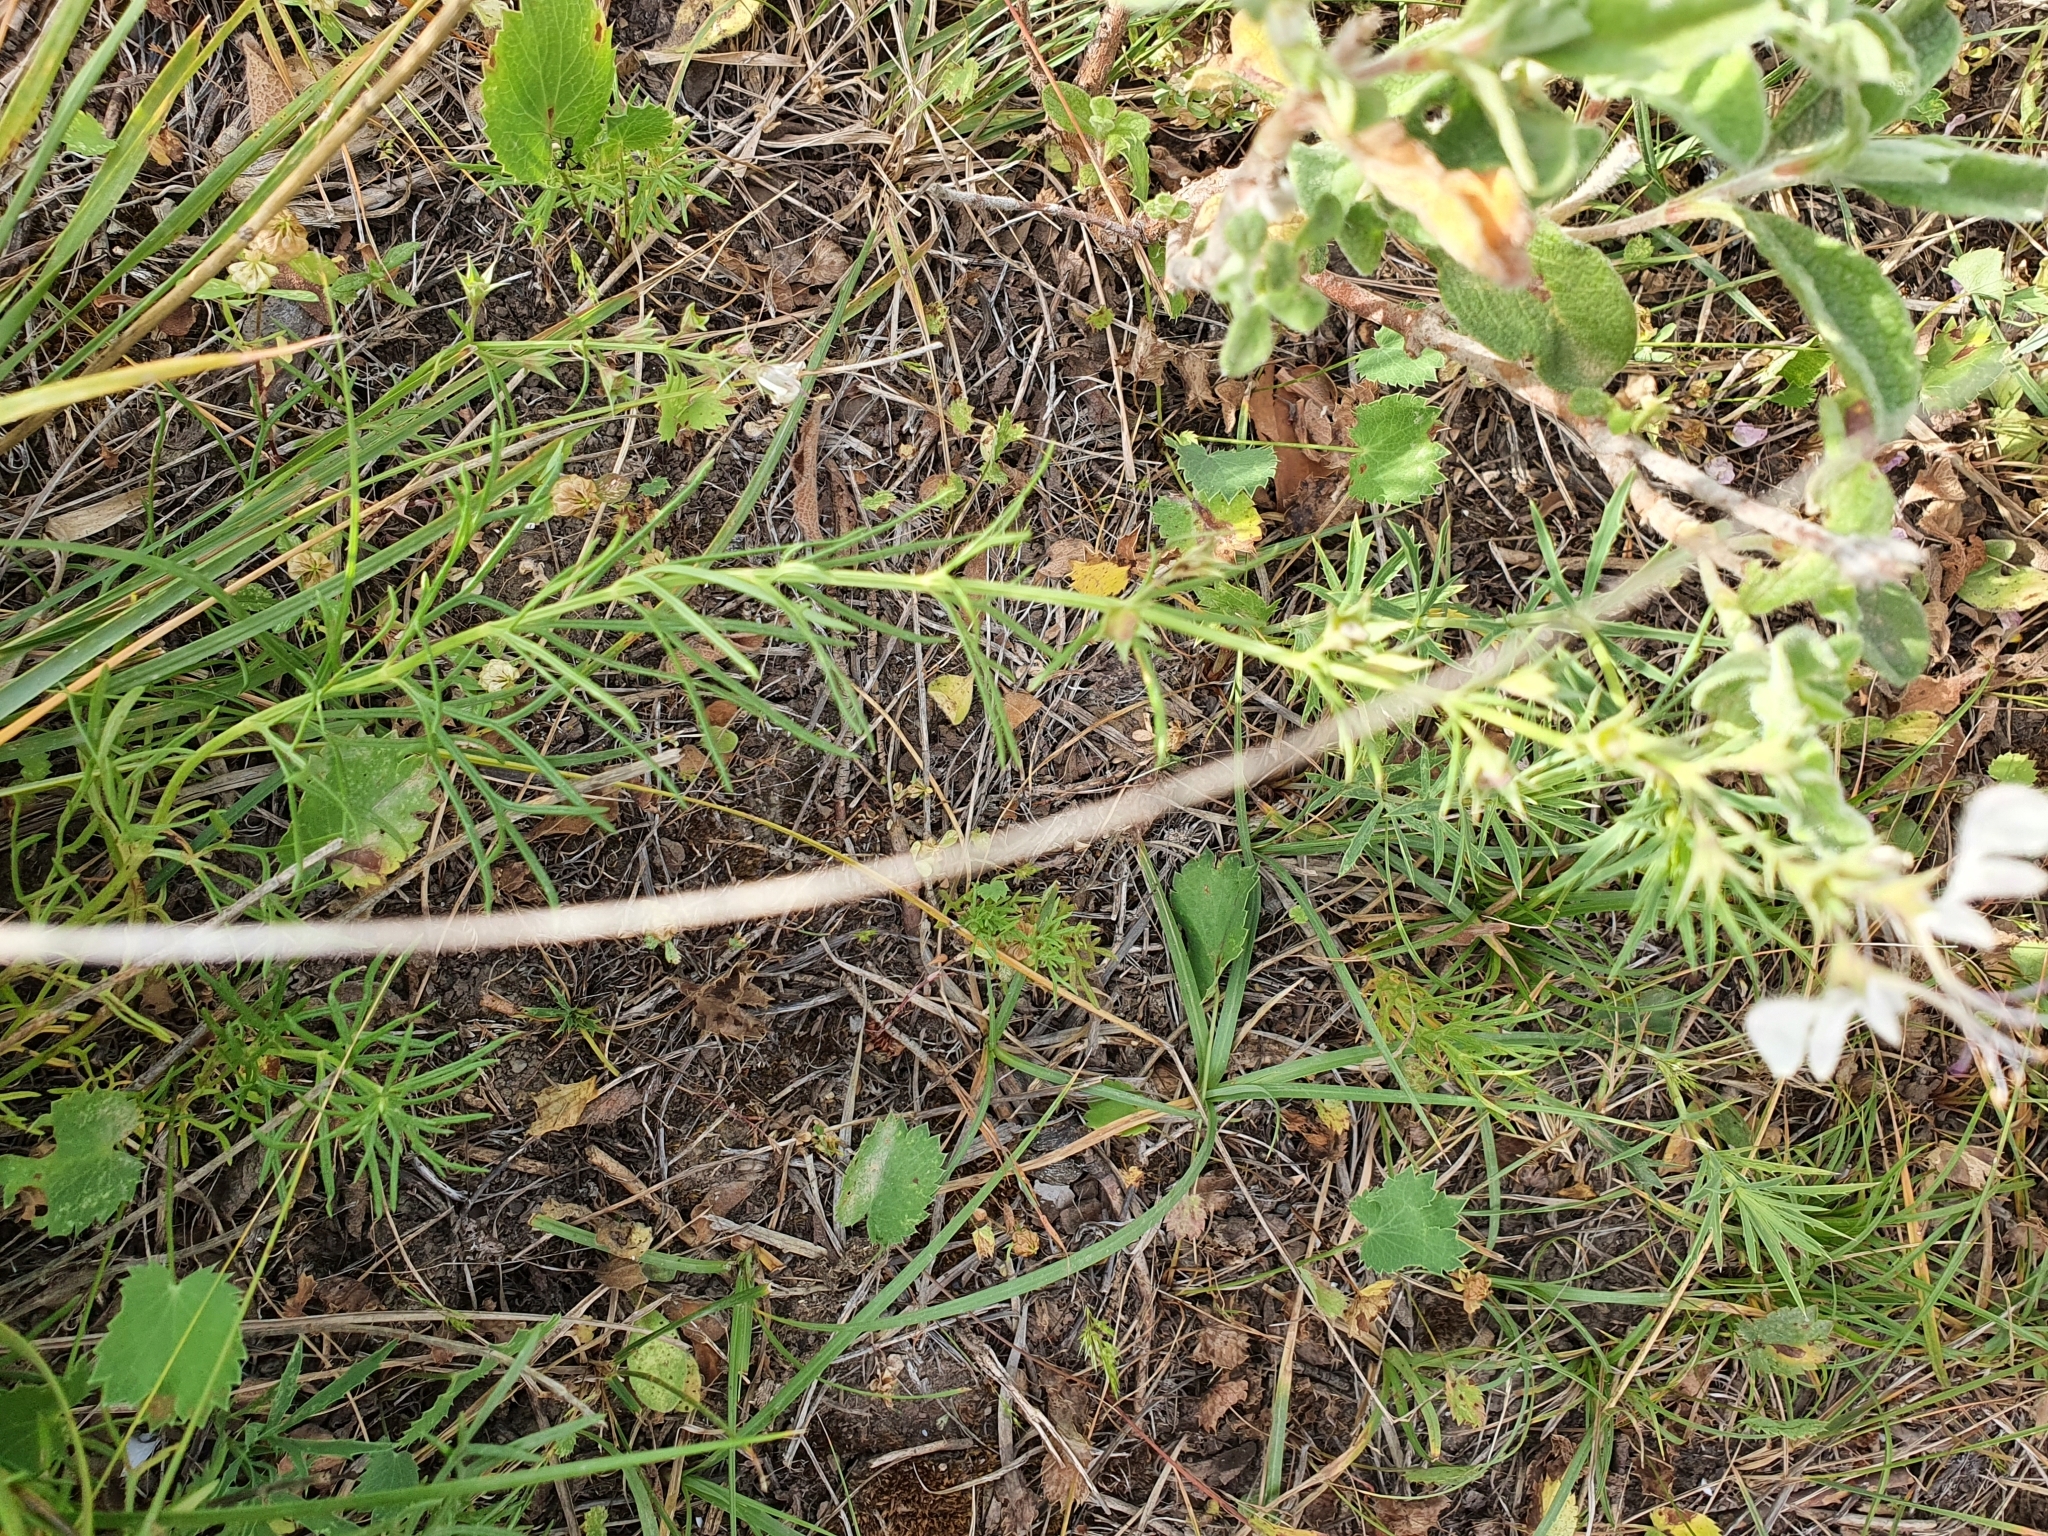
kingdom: Plantae
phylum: Tracheophyta
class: Magnoliopsida
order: Lamiales
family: Lamiaceae
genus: Teucrium
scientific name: Teucrium pseudochamaepitys
